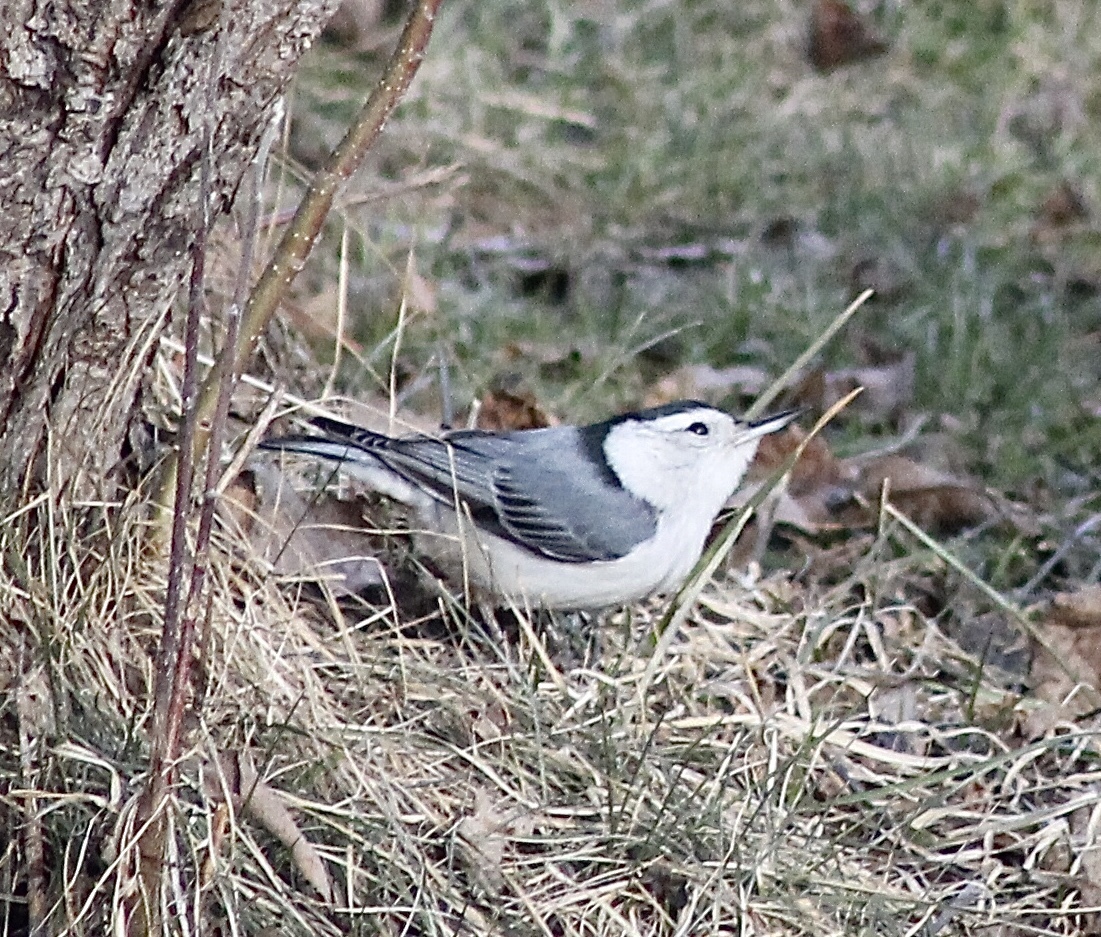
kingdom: Animalia
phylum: Chordata
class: Aves
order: Passeriformes
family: Sittidae
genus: Sitta
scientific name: Sitta carolinensis
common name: White-breasted nuthatch
